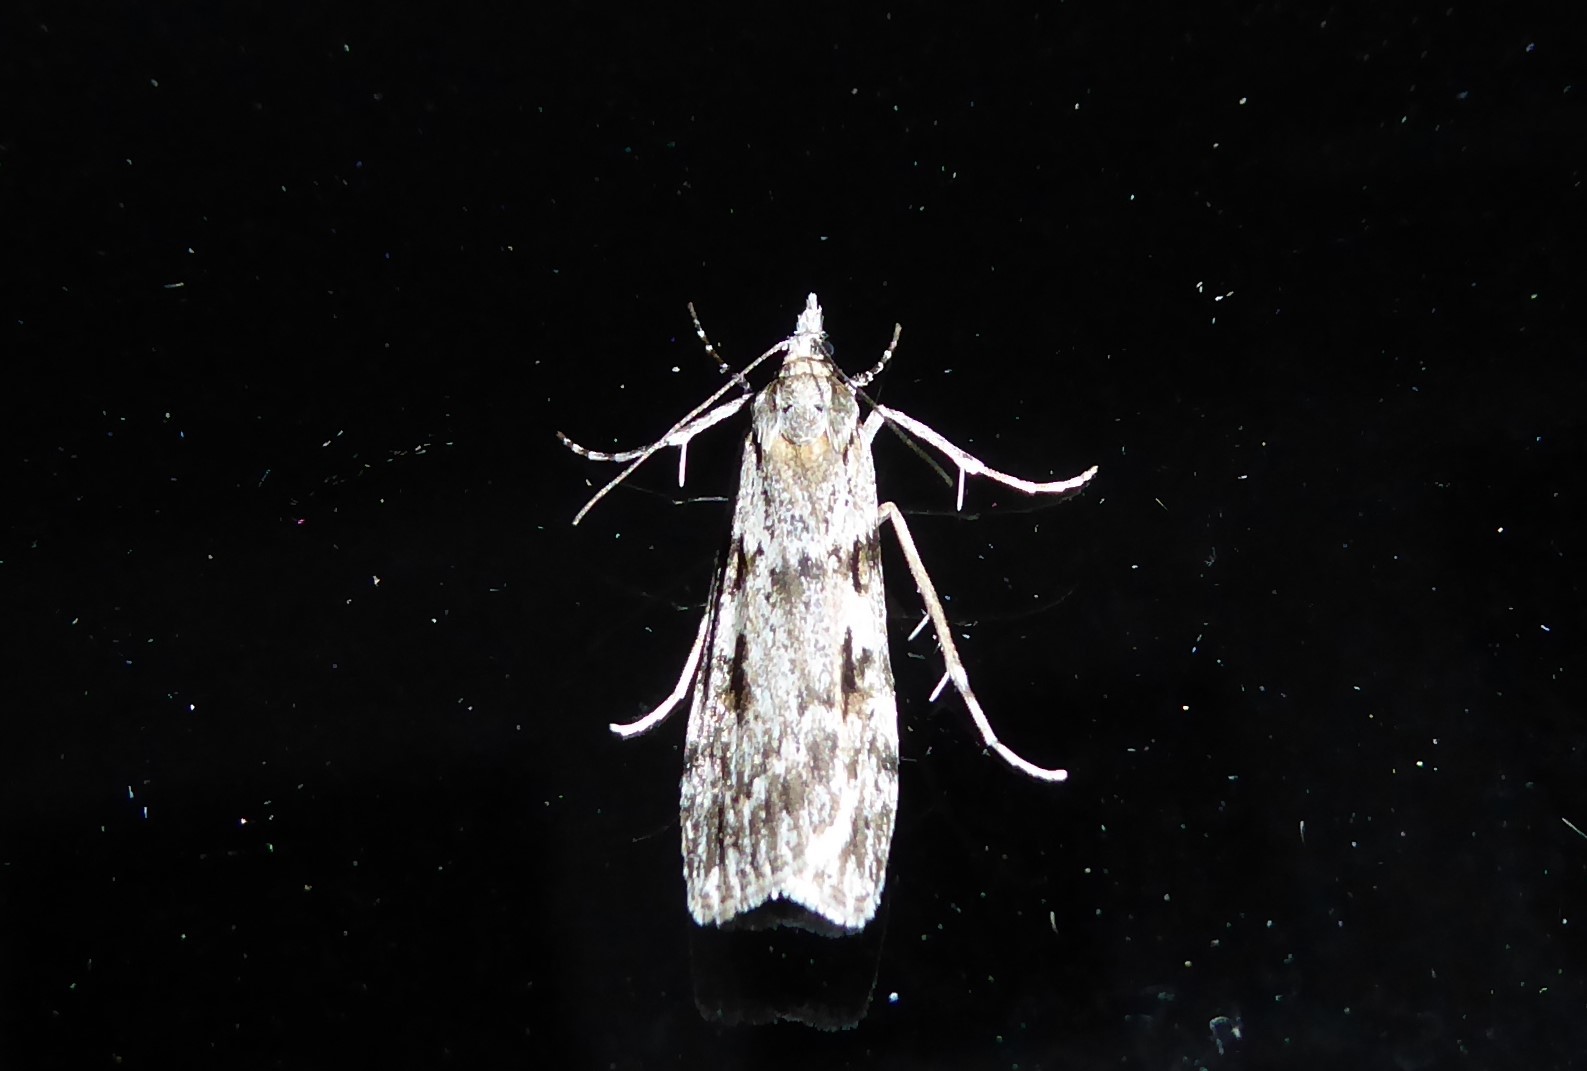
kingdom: Animalia
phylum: Arthropoda
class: Insecta
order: Lepidoptera
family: Crambidae
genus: Scoparia
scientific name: Scoparia halopis
